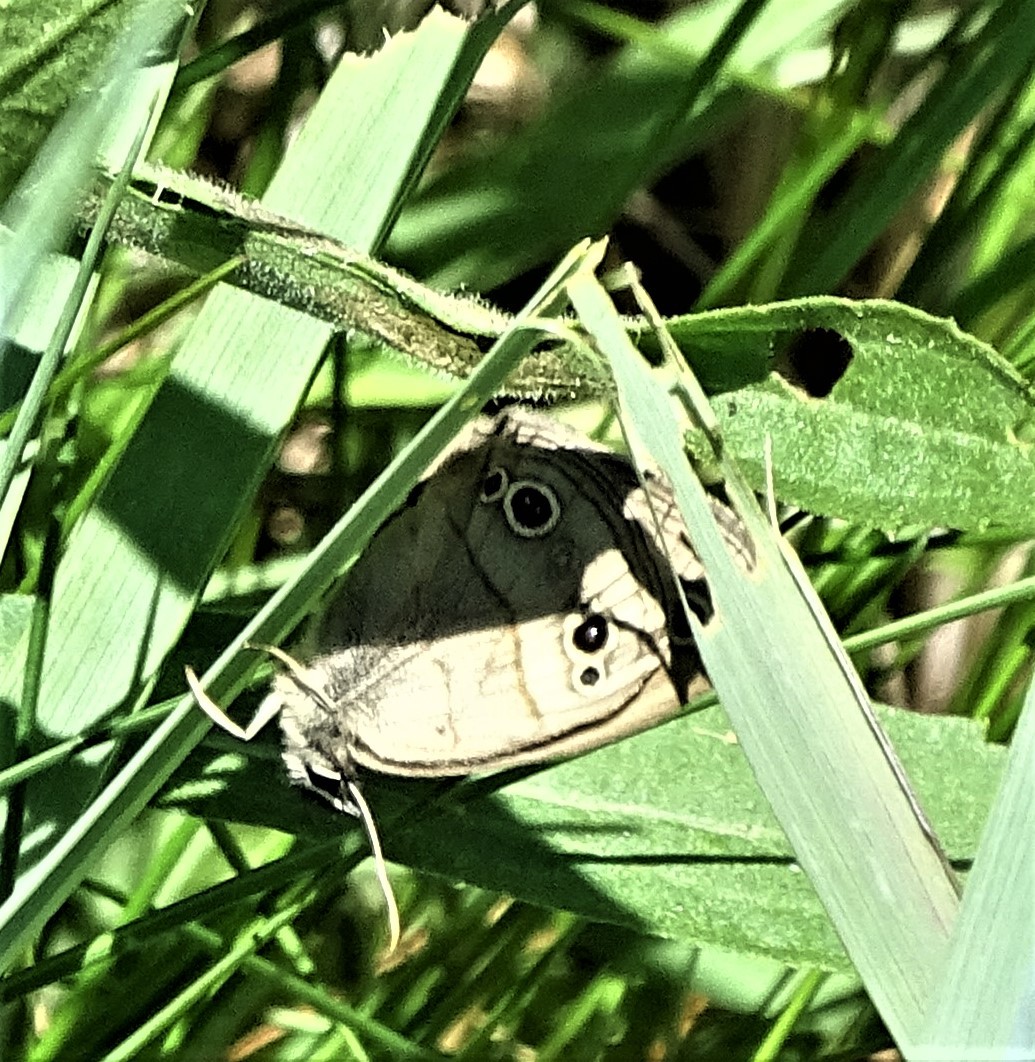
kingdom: Animalia
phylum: Arthropoda
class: Insecta
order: Lepidoptera
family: Nymphalidae
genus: Euptychia
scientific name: Euptychia cymela
